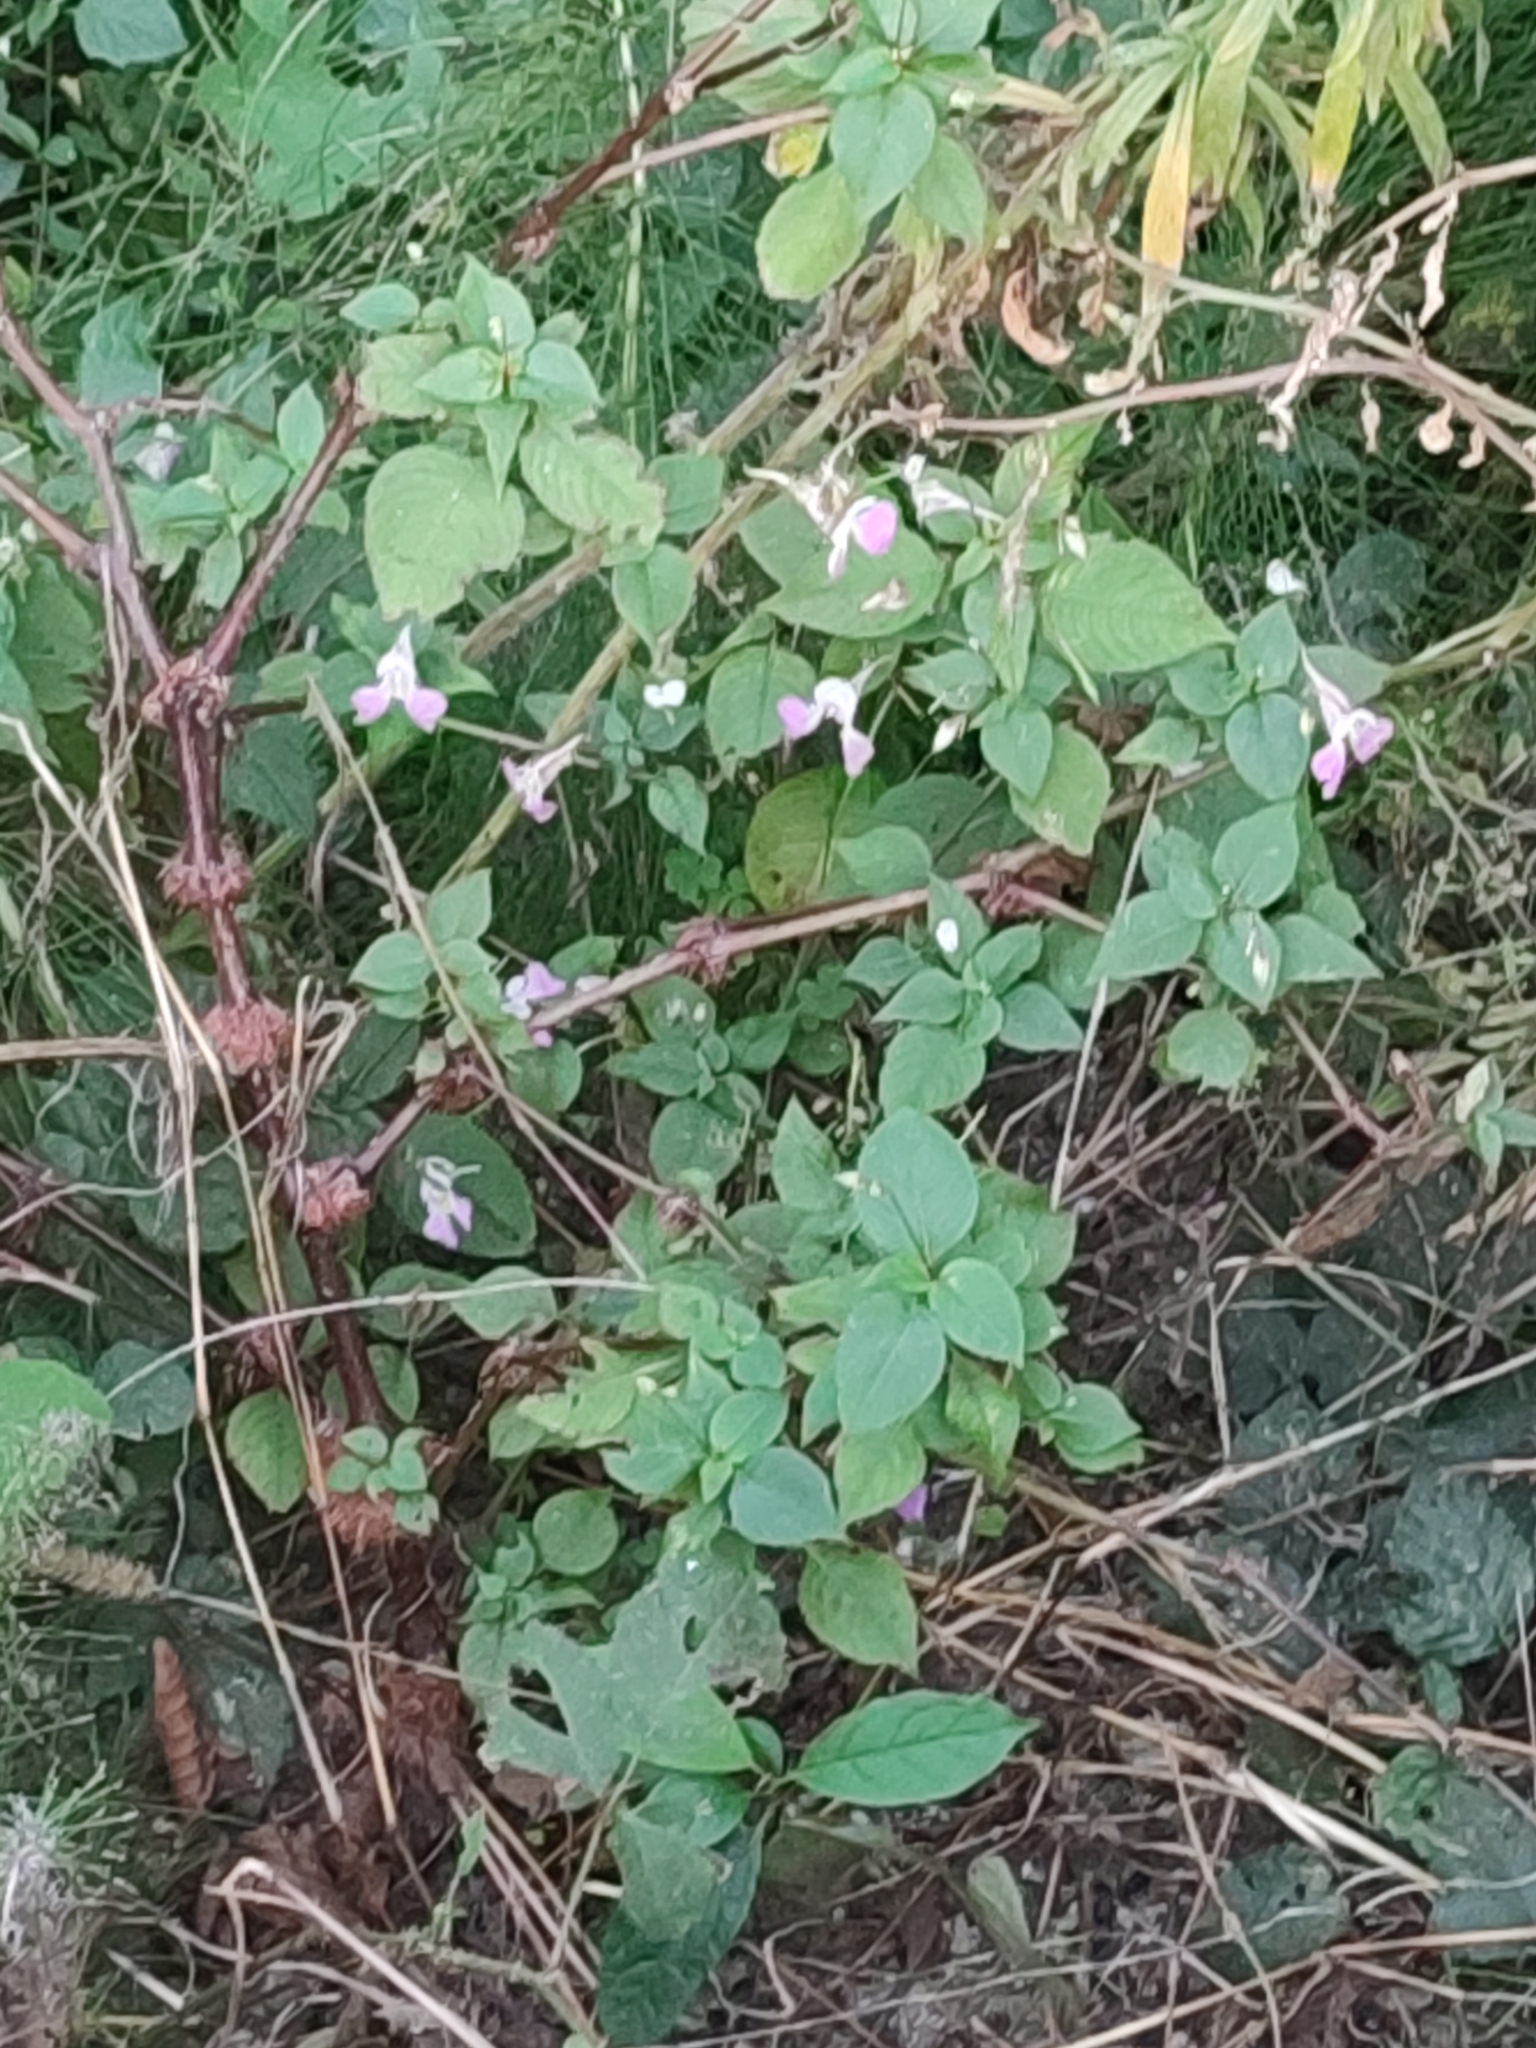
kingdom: Plantae
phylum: Tracheophyta
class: Magnoliopsida
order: Ericales
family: Balsaminaceae
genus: Impatiens
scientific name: Impatiens balfourii
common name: Balfour's touch-me-not
